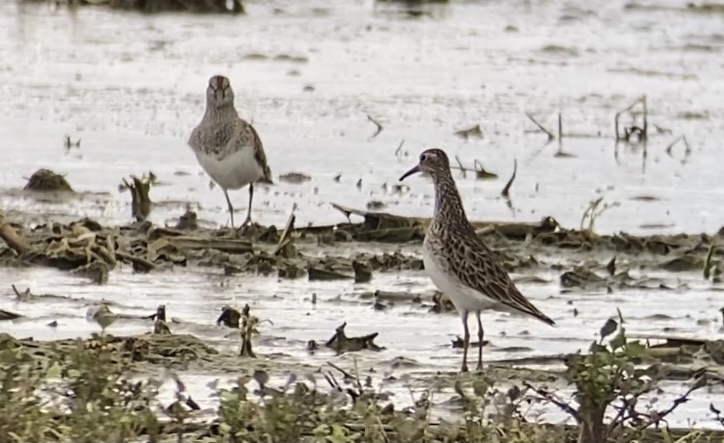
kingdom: Animalia
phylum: Chordata
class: Aves
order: Charadriiformes
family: Scolopacidae
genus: Calidris
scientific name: Calidris melanotos
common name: Pectoral sandpiper
